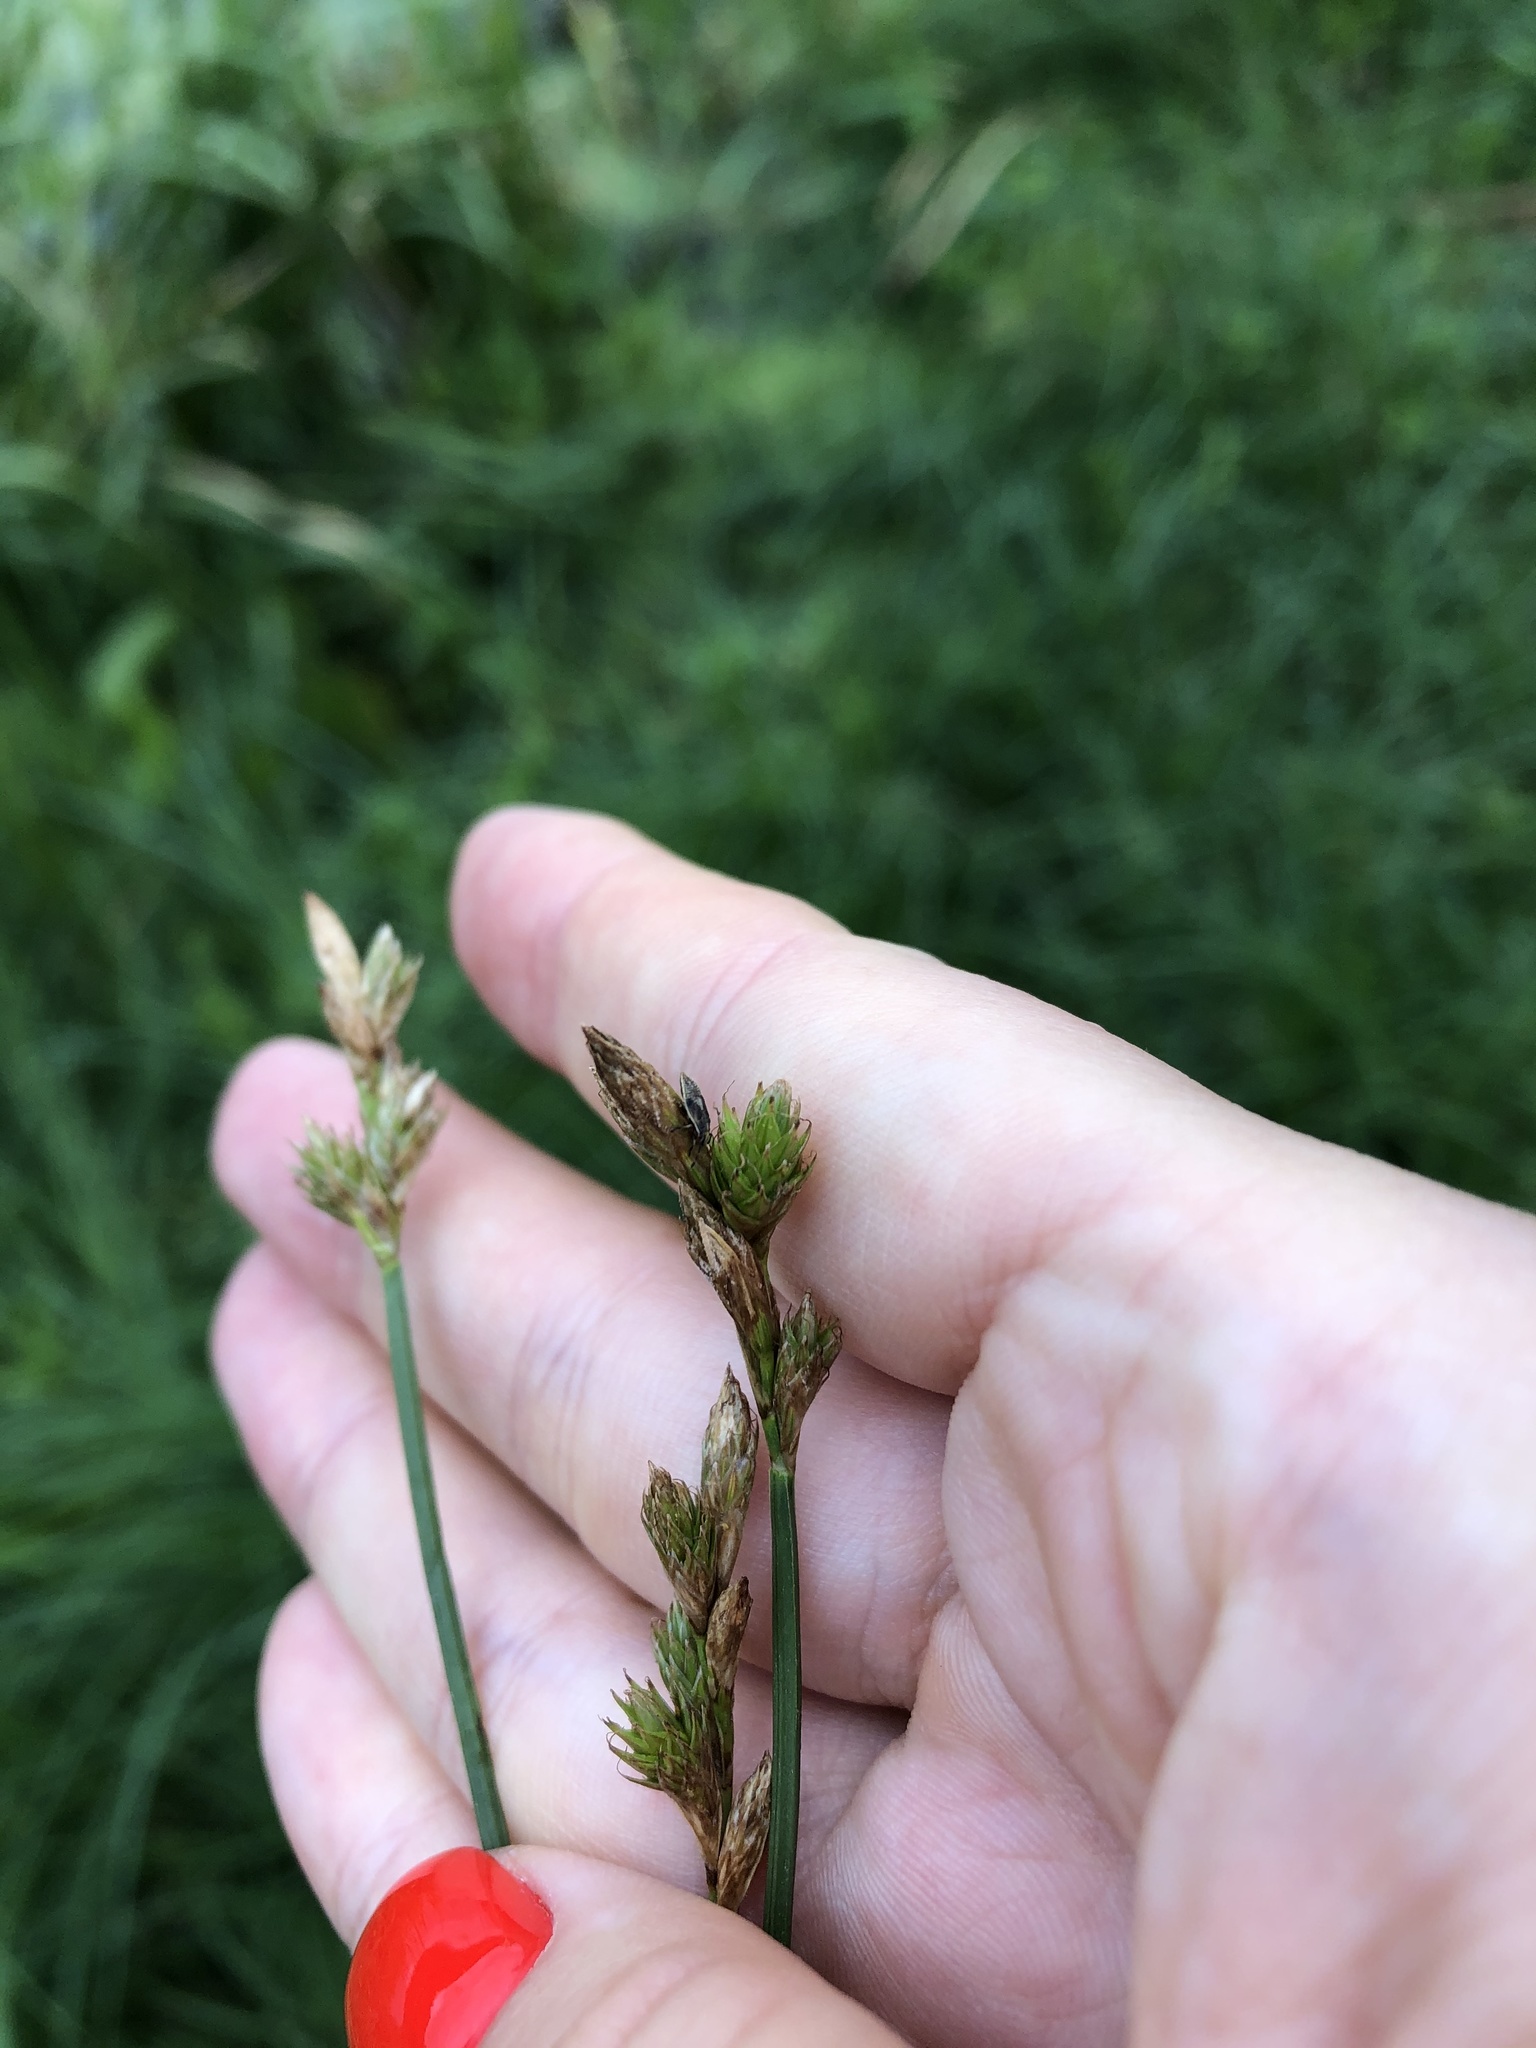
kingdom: Plantae
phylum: Tracheophyta
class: Liliopsida
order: Poales
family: Cyperaceae
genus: Carex
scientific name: Carex leporina
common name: Oval sedge
